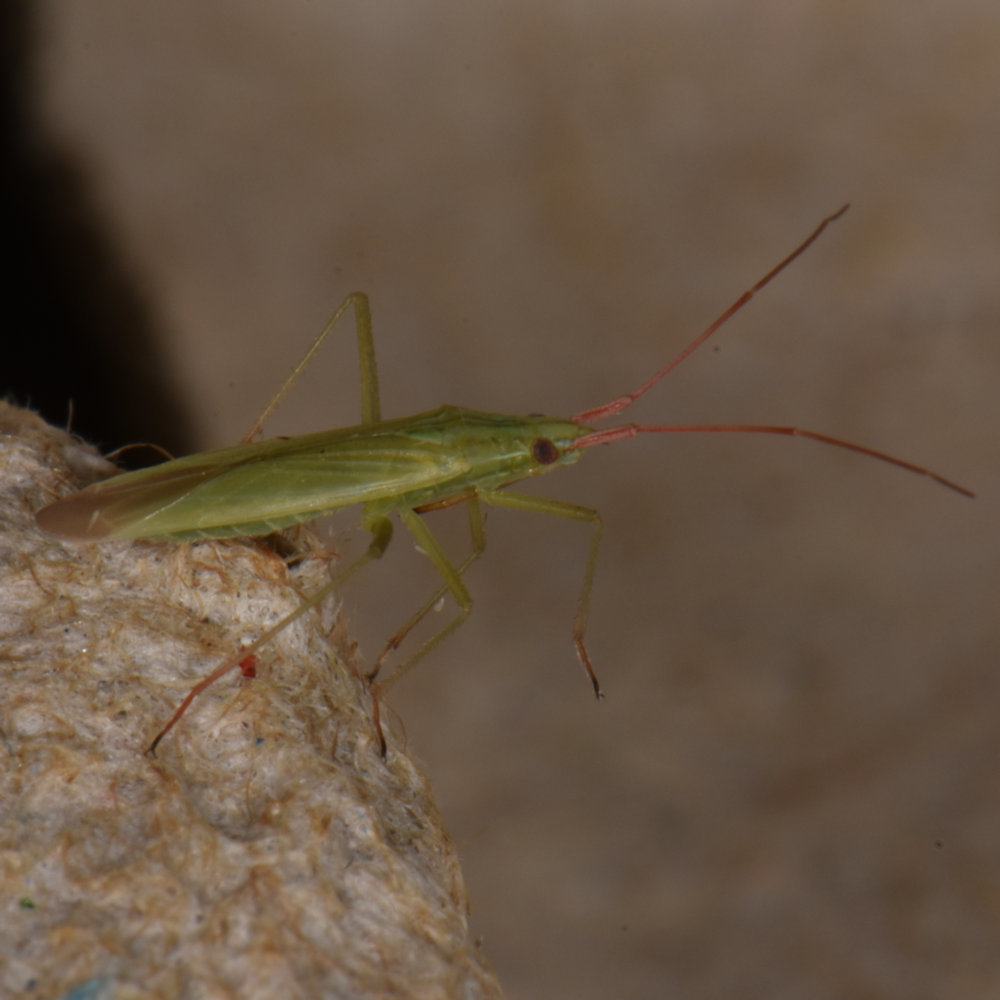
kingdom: Animalia
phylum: Arthropoda
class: Insecta
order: Hemiptera
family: Miridae
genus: Trigonotylus
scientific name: Trigonotylus caelestialium
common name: Rice leaf bug
